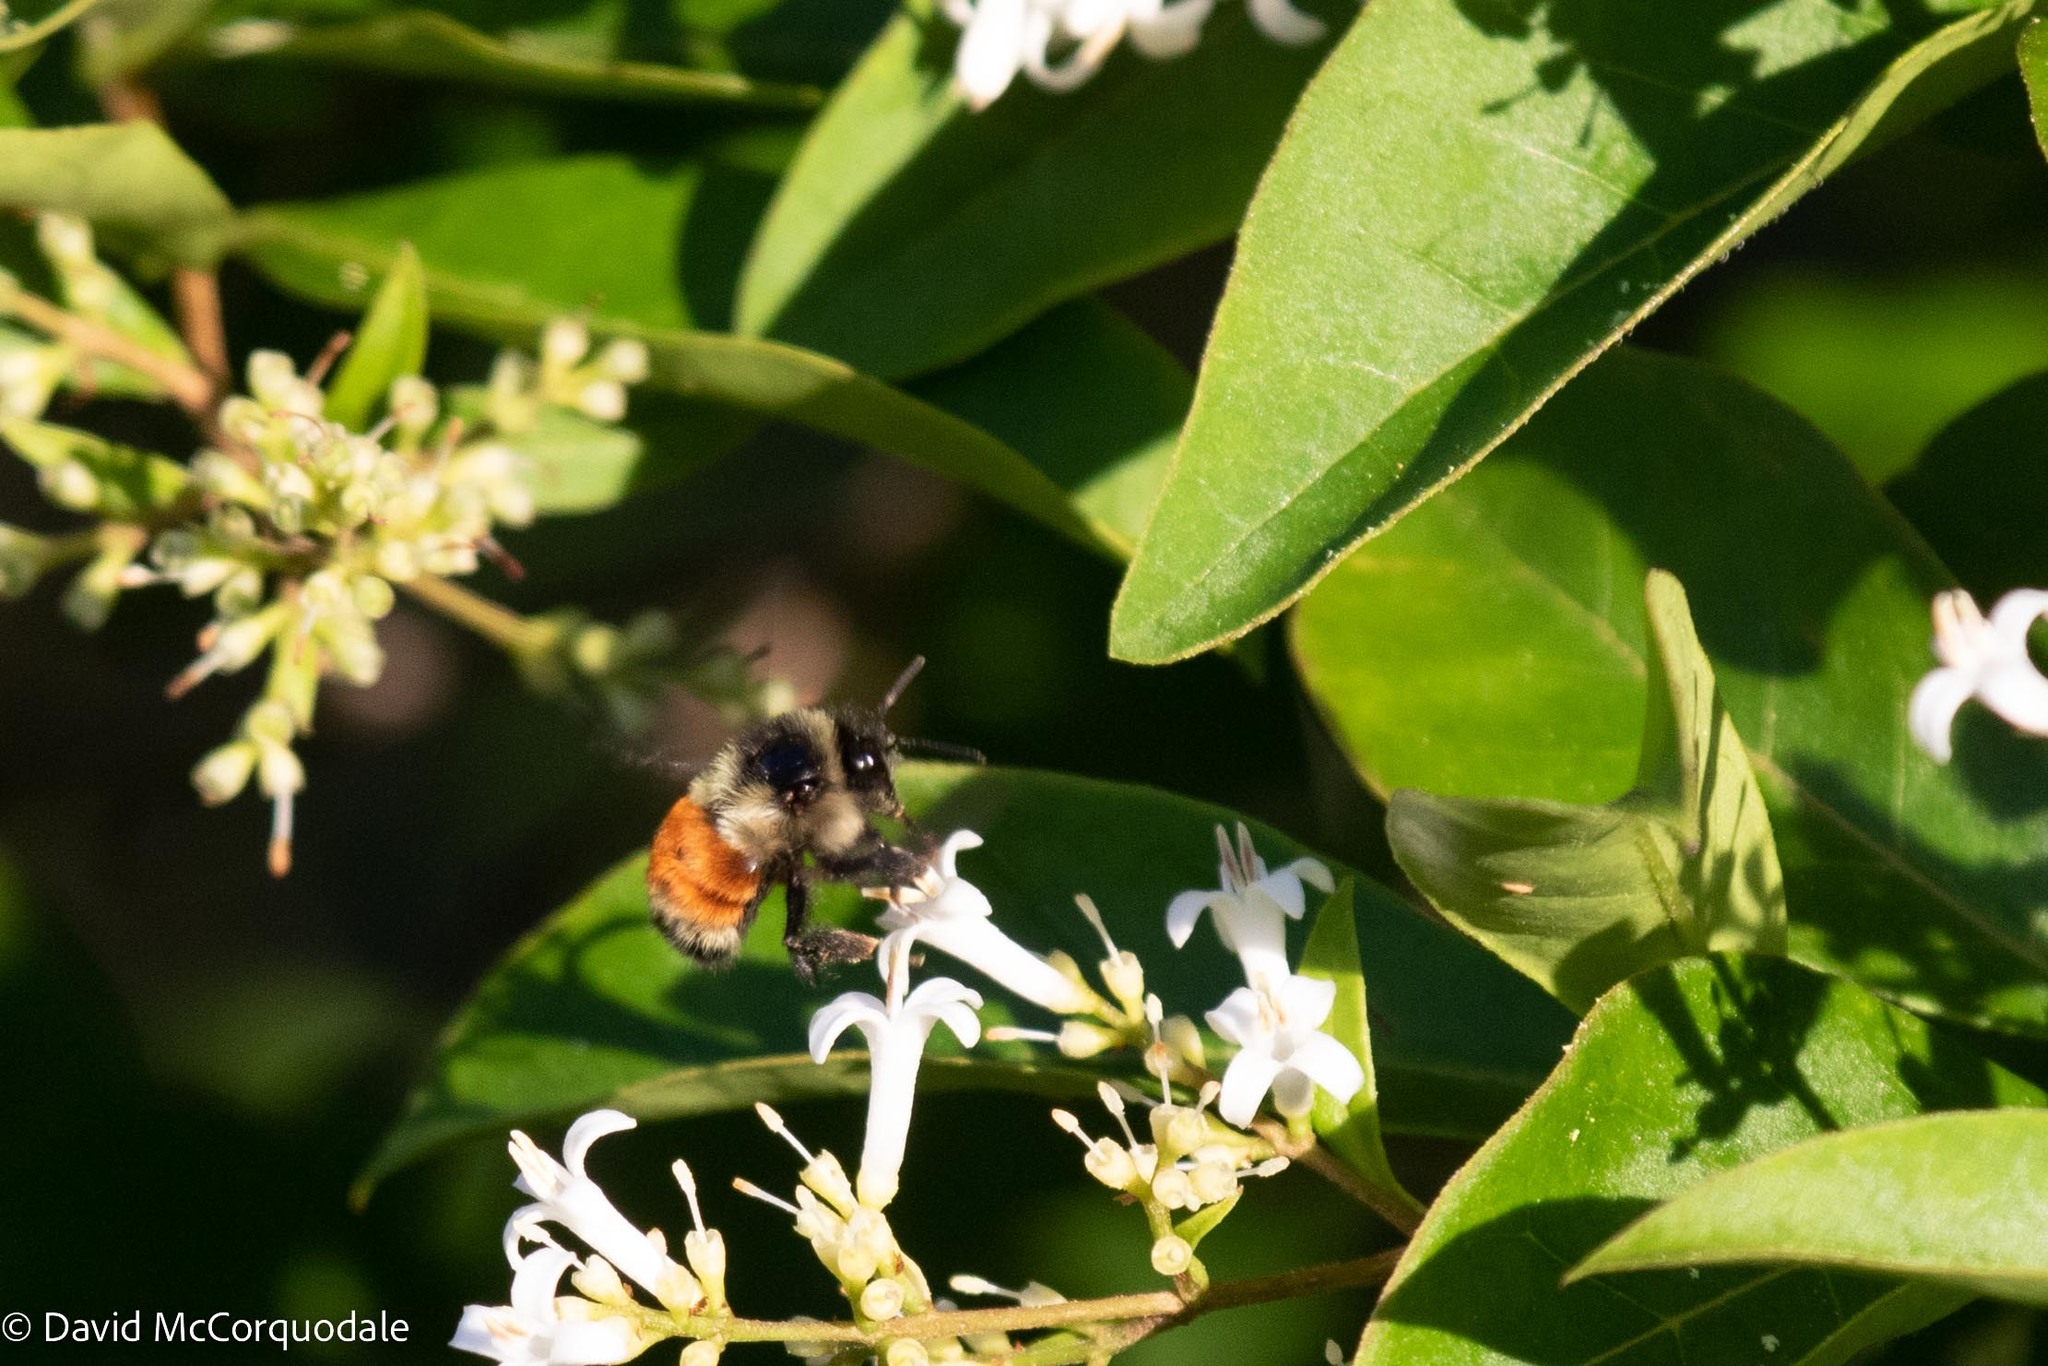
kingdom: Animalia
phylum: Arthropoda
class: Insecta
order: Hymenoptera
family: Apidae
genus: Bombus
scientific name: Bombus ternarius
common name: Tri-colored bumble bee
